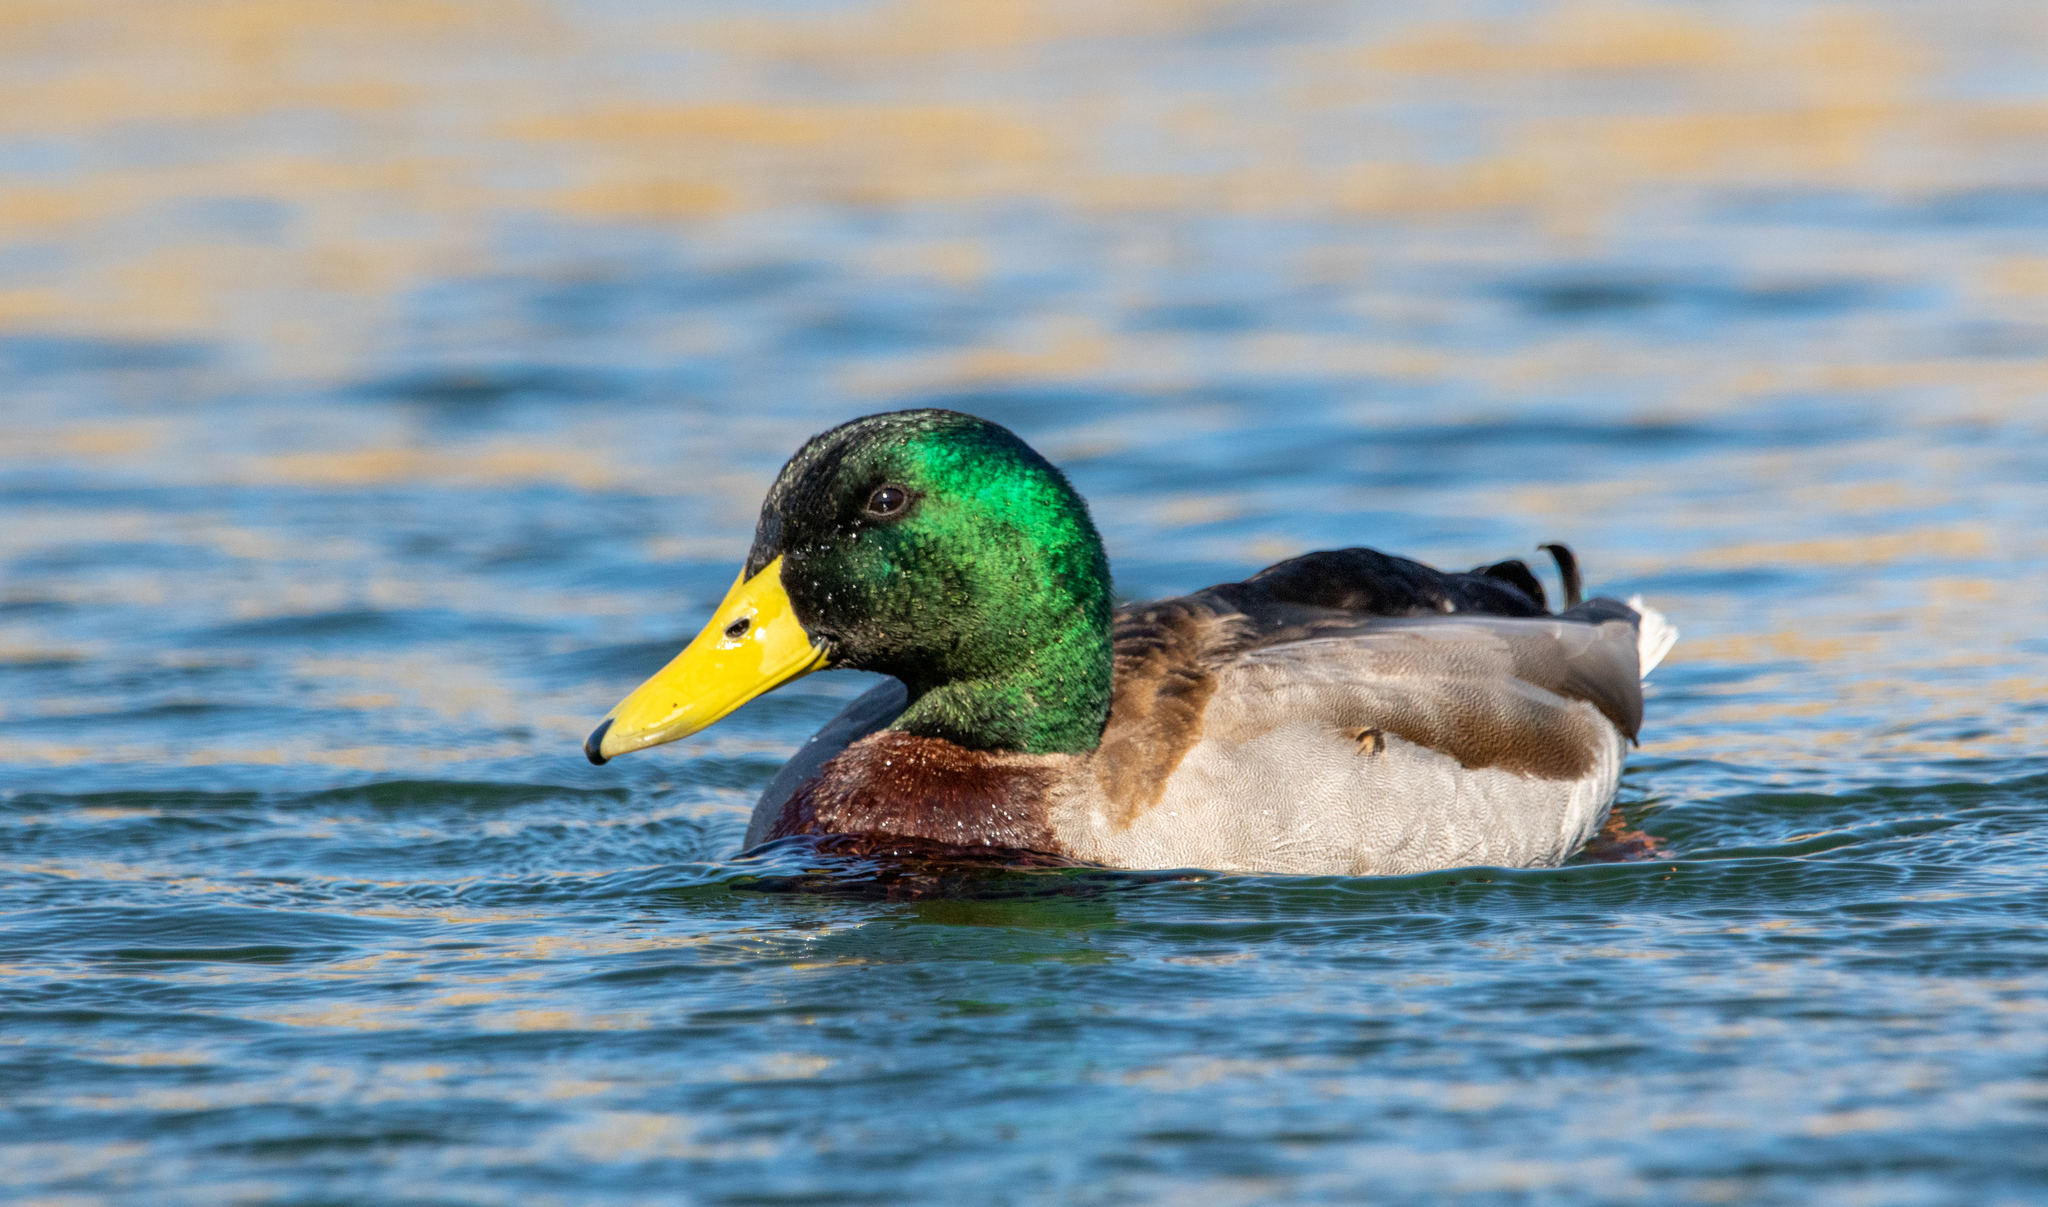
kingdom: Animalia
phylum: Chordata
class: Aves
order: Anseriformes
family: Anatidae
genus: Anas
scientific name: Anas platyrhynchos
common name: Mallard
